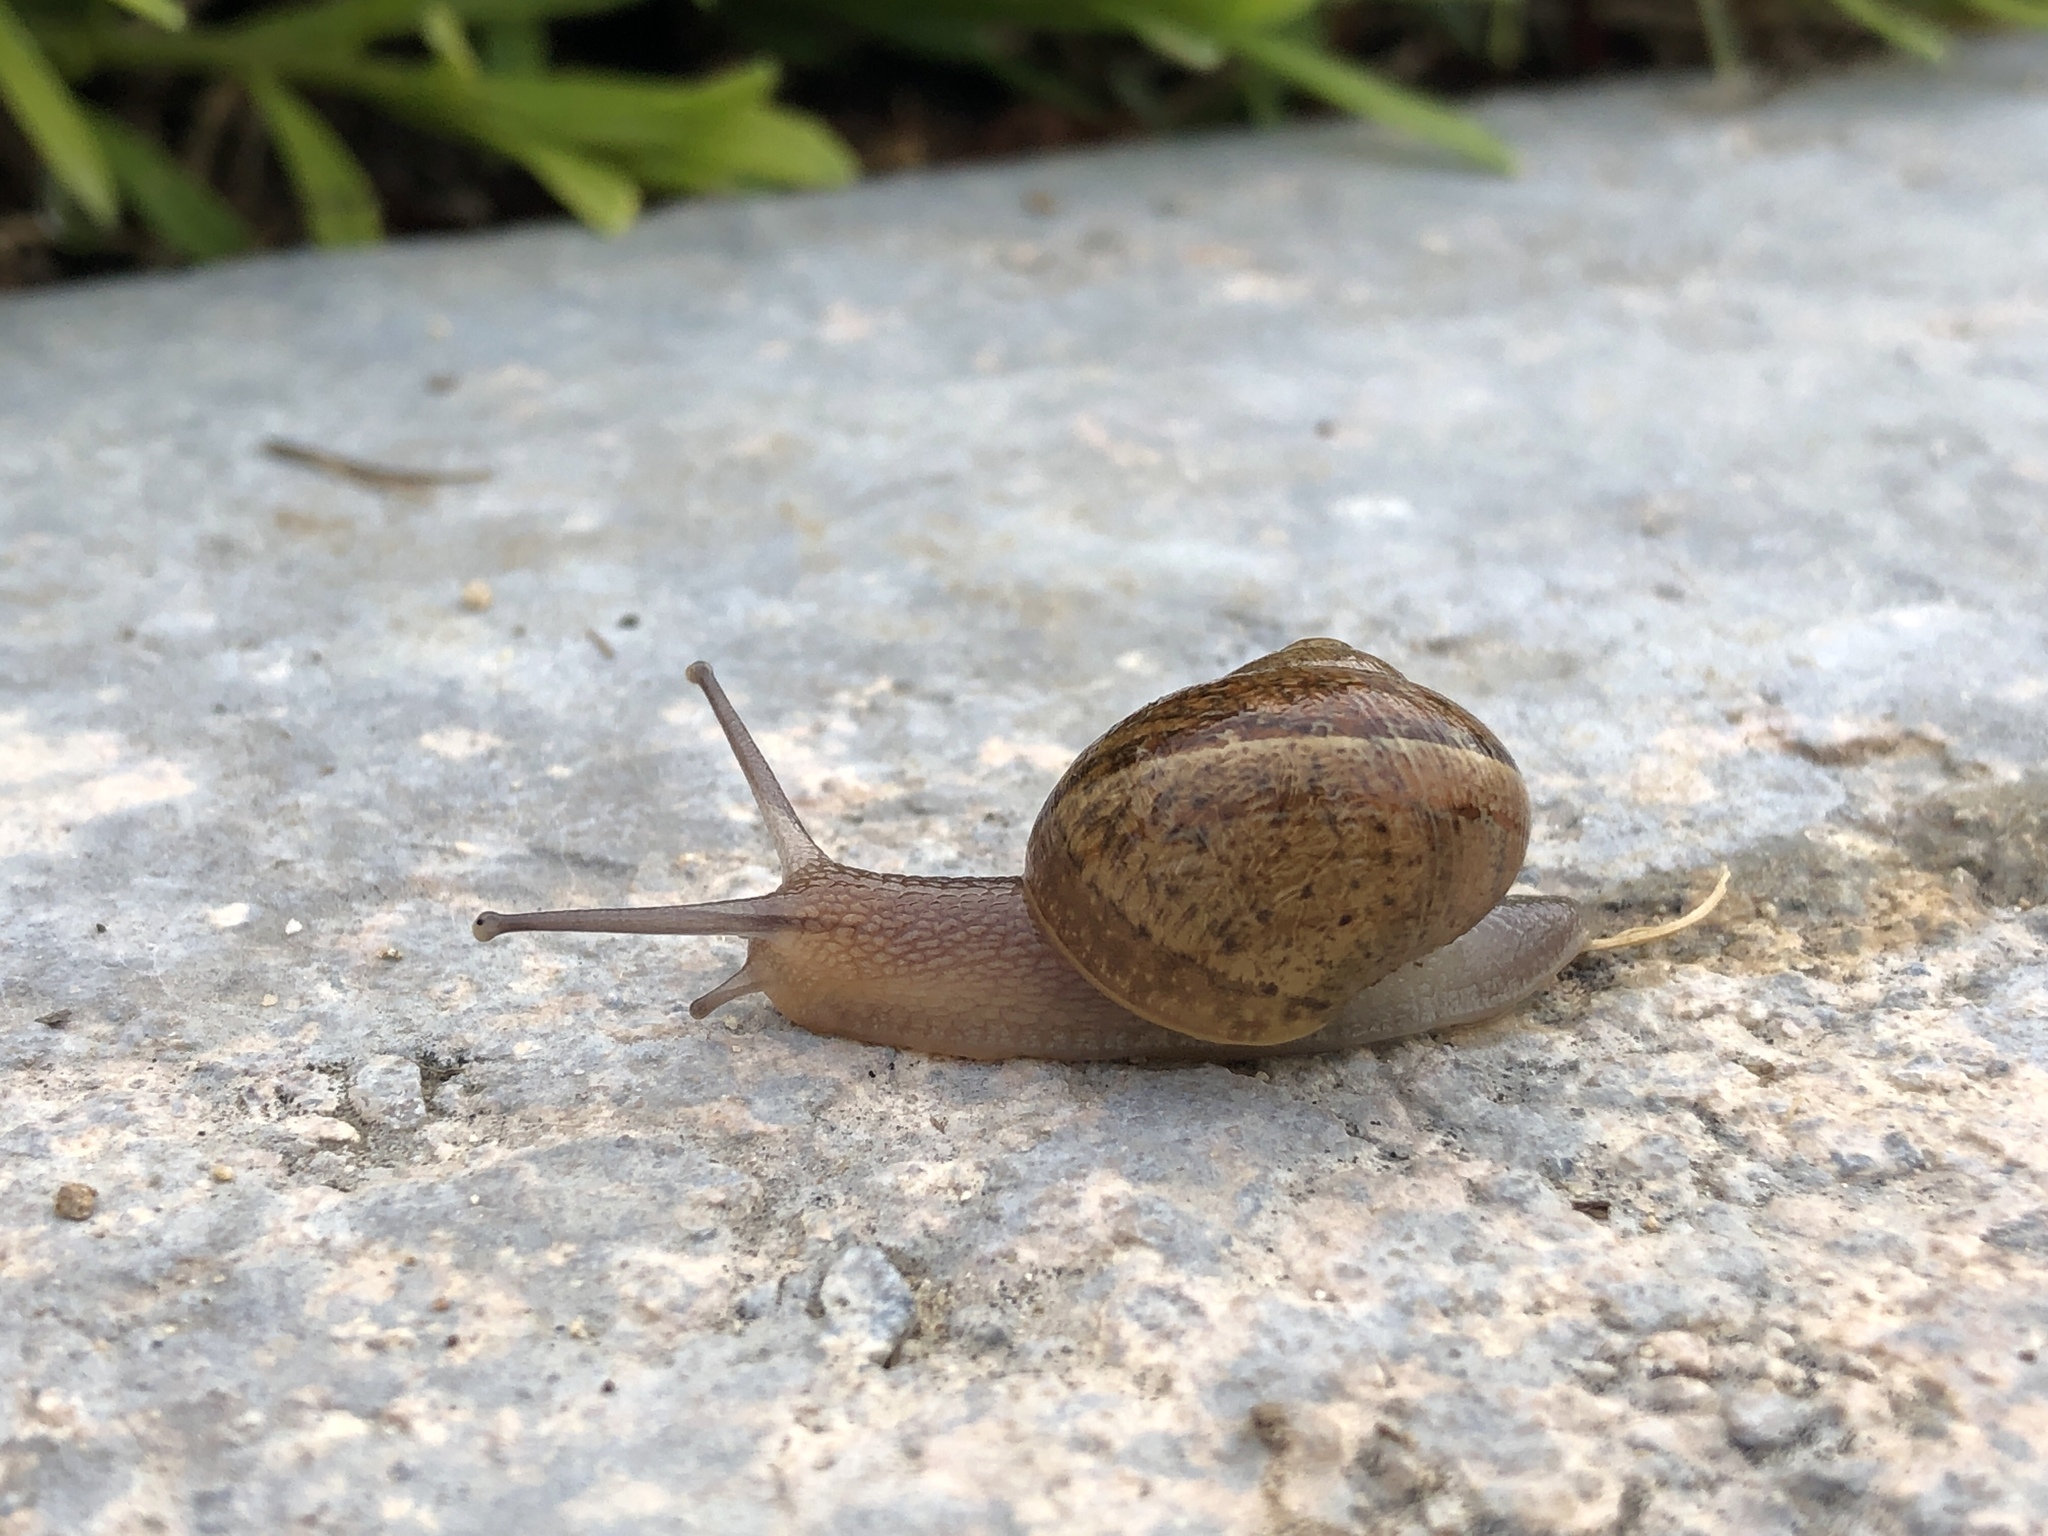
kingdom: Animalia
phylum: Mollusca
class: Gastropoda
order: Stylommatophora
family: Helicidae
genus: Cornu
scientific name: Cornu aspersum
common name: Brown garden snail
